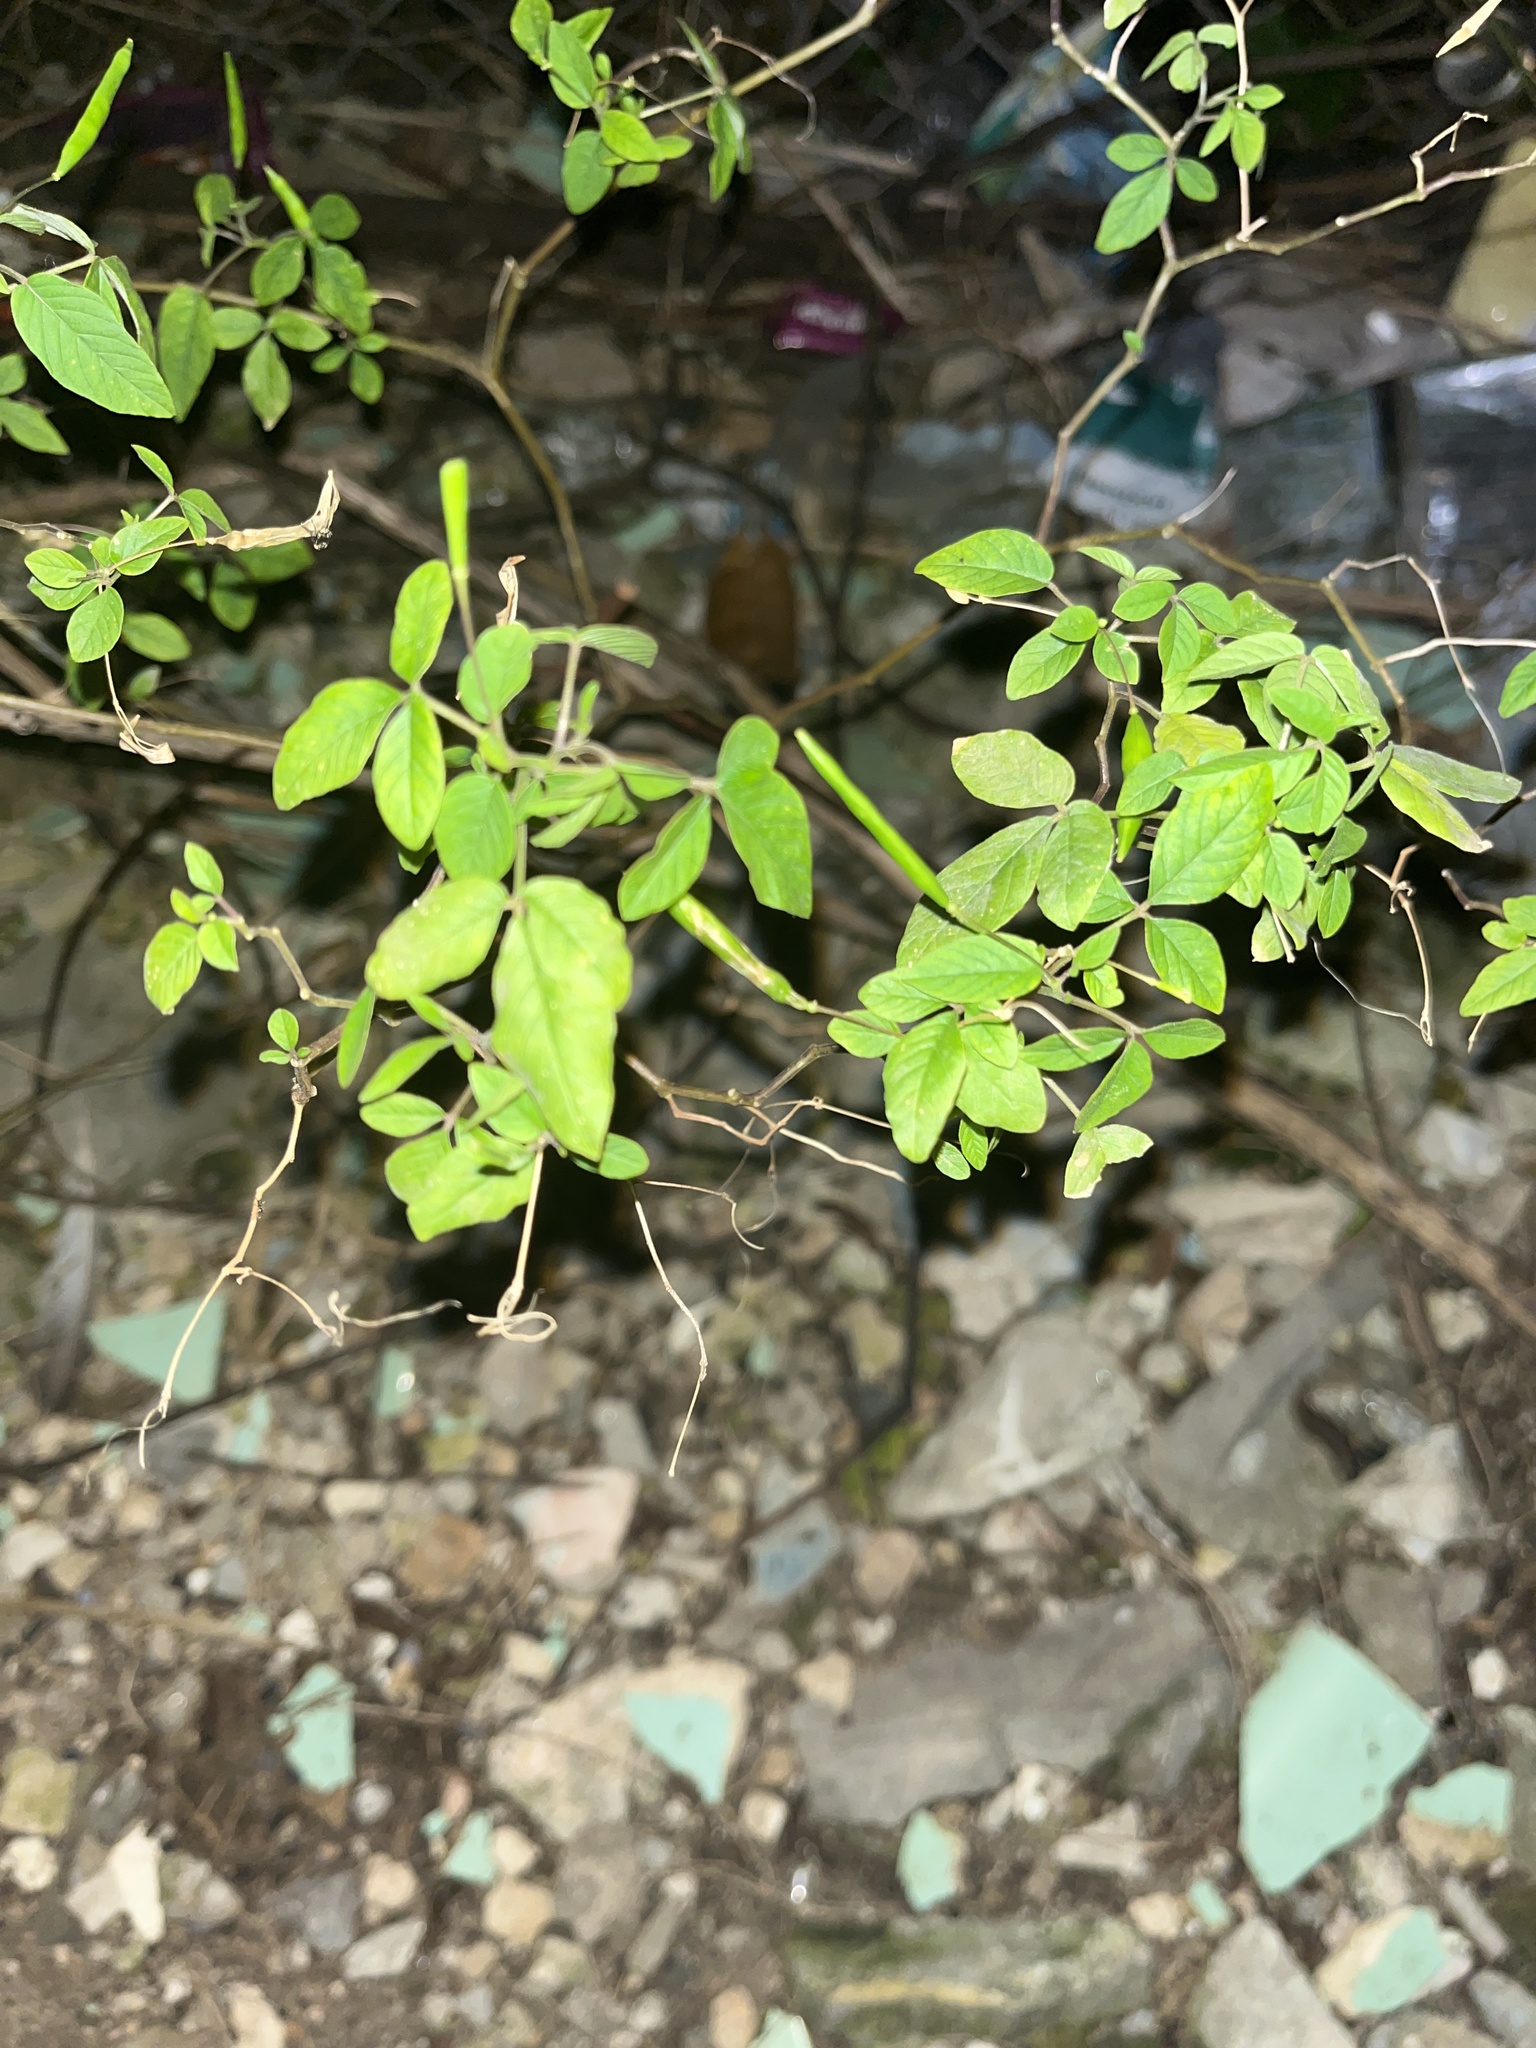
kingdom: Plantae
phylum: Tracheophyta
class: Magnoliopsida
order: Brassicales
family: Cleomaceae
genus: Tarenaya
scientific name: Tarenaya aculeata
